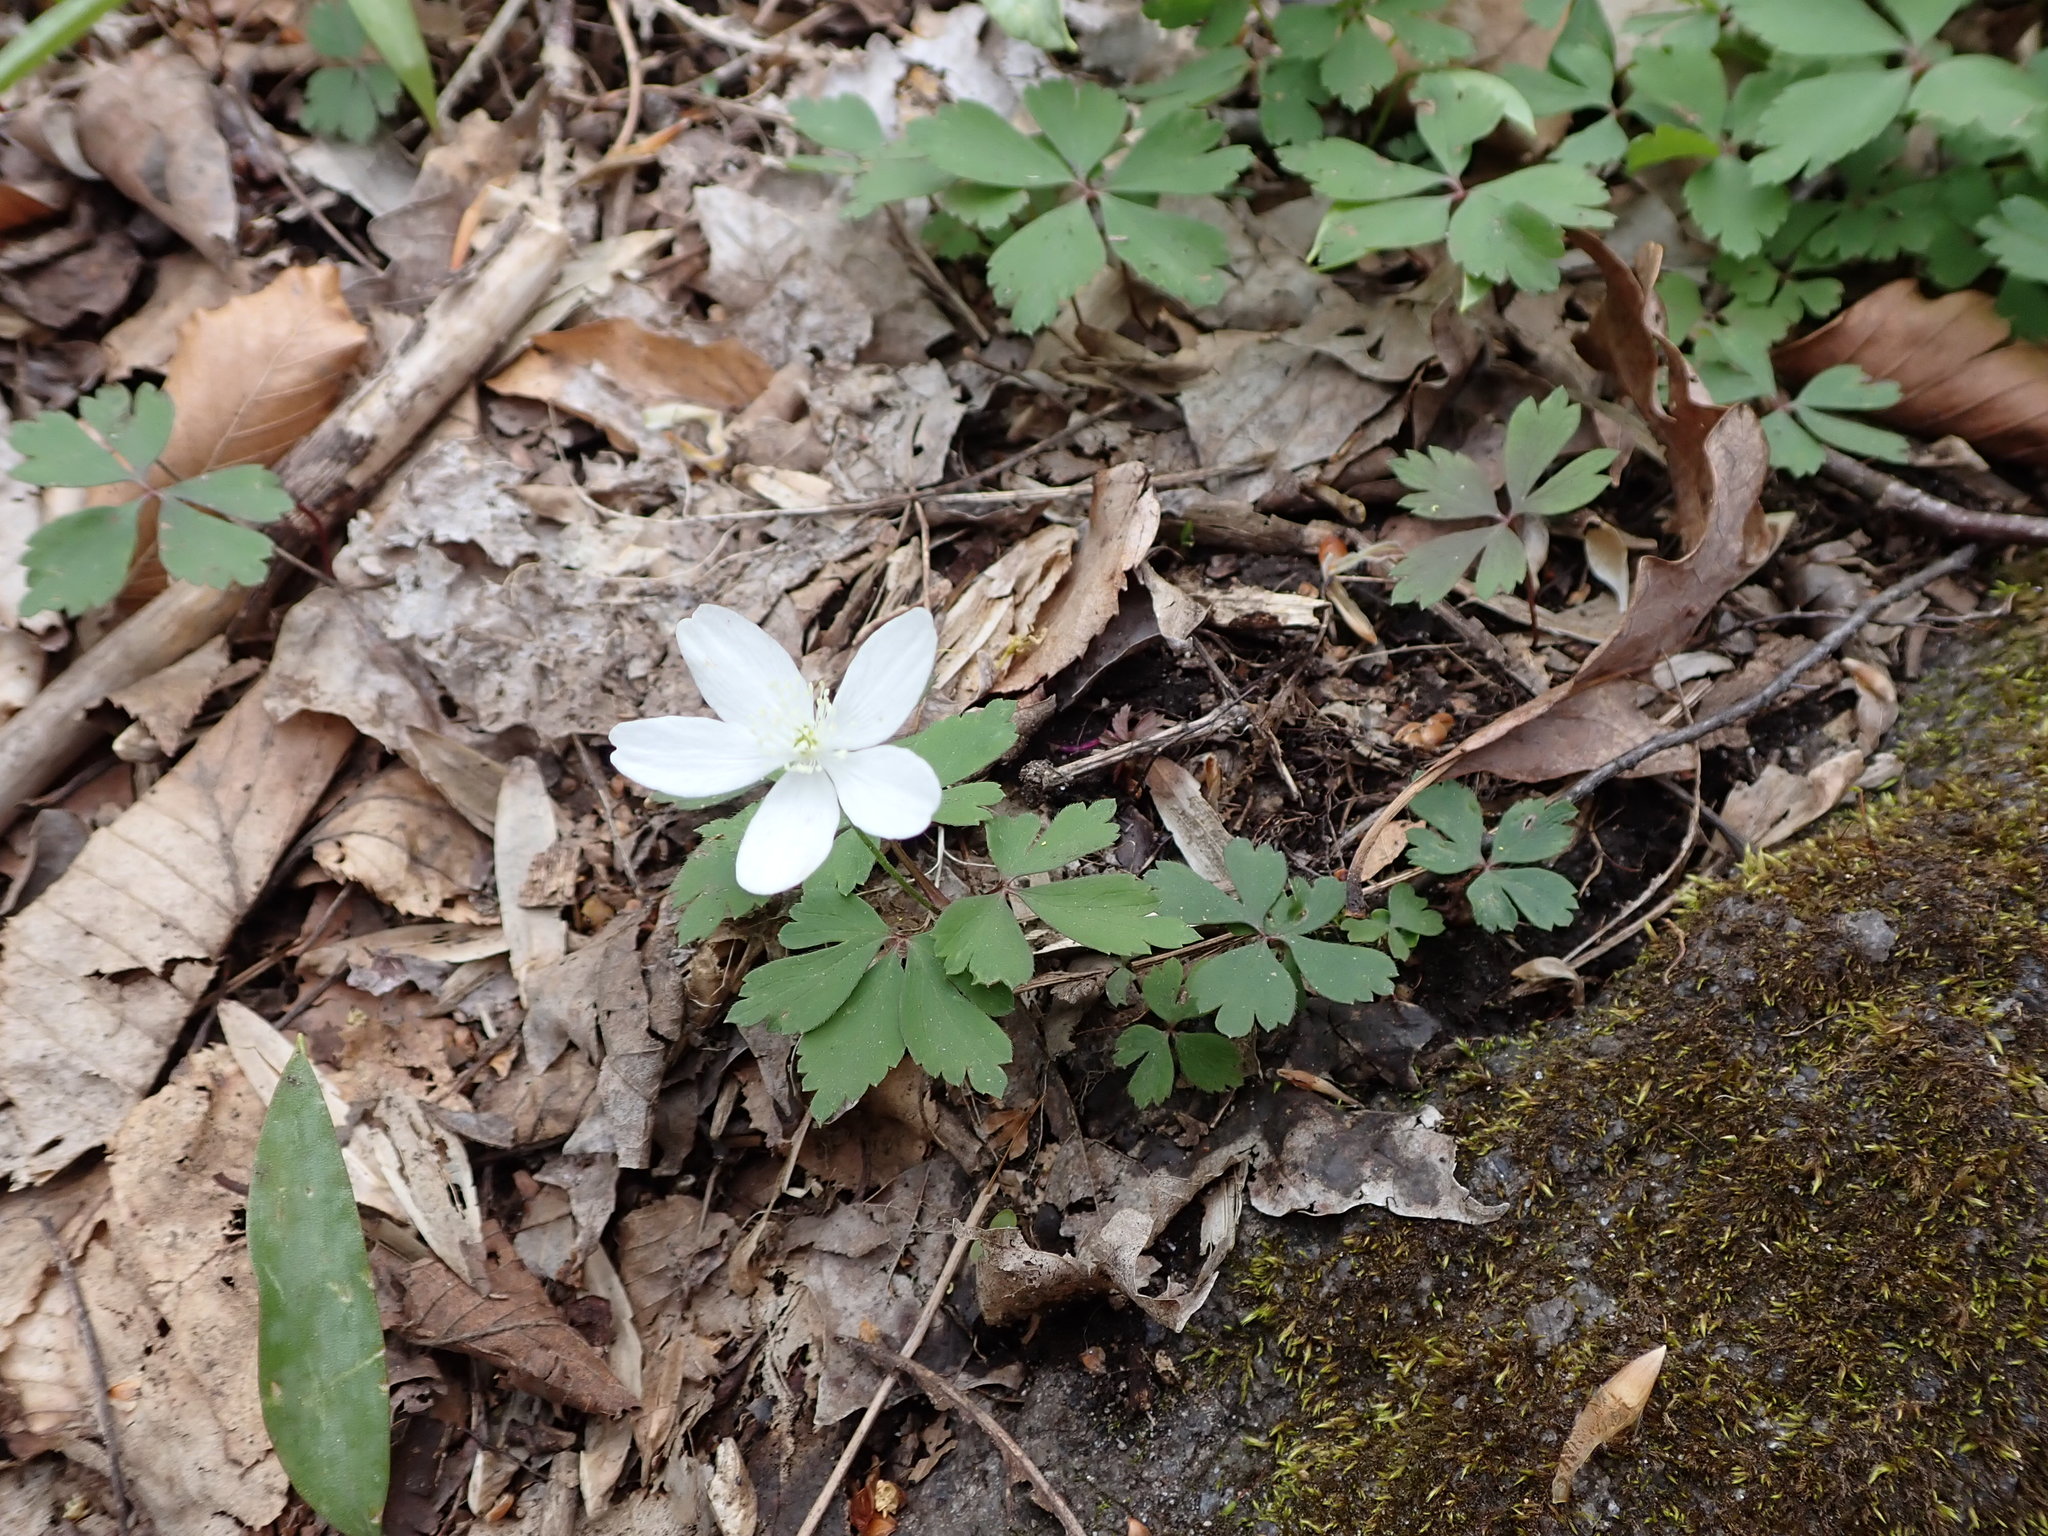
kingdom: Plantae
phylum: Tracheophyta
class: Magnoliopsida
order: Ranunculales
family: Ranunculaceae
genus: Anemone
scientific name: Anemone quinquefolia
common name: Wood anemone
